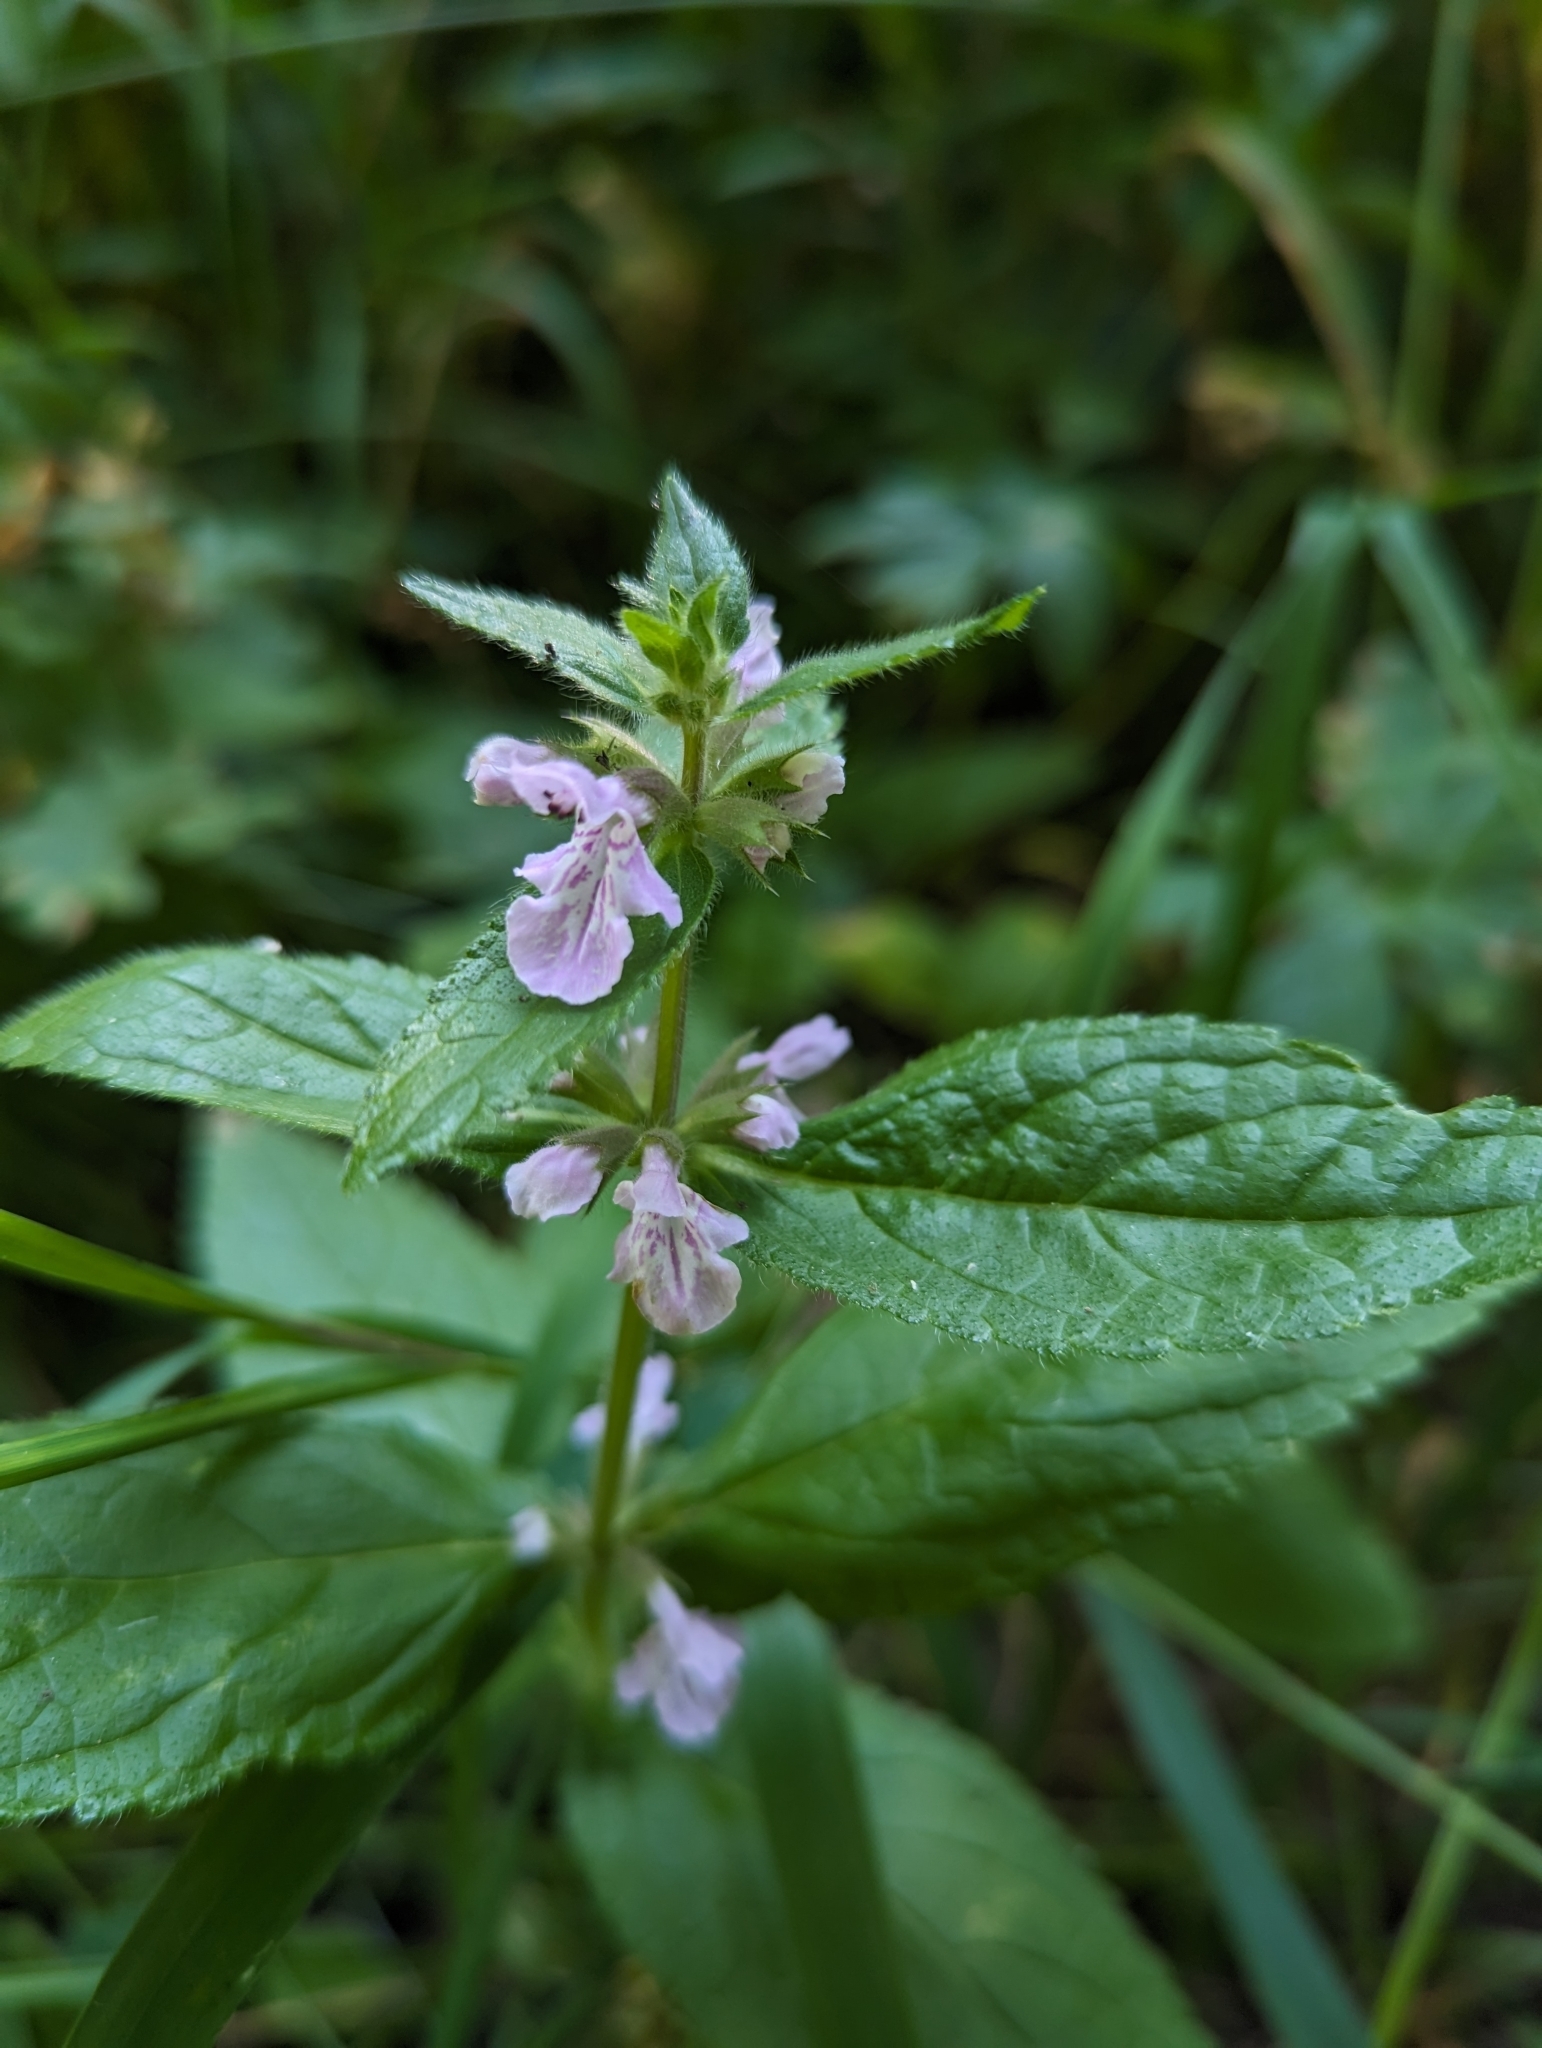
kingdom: Plantae
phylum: Tracheophyta
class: Magnoliopsida
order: Lamiales
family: Lamiaceae
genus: Stachys
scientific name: Stachys pilosa
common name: Hairy hedge-nettle
